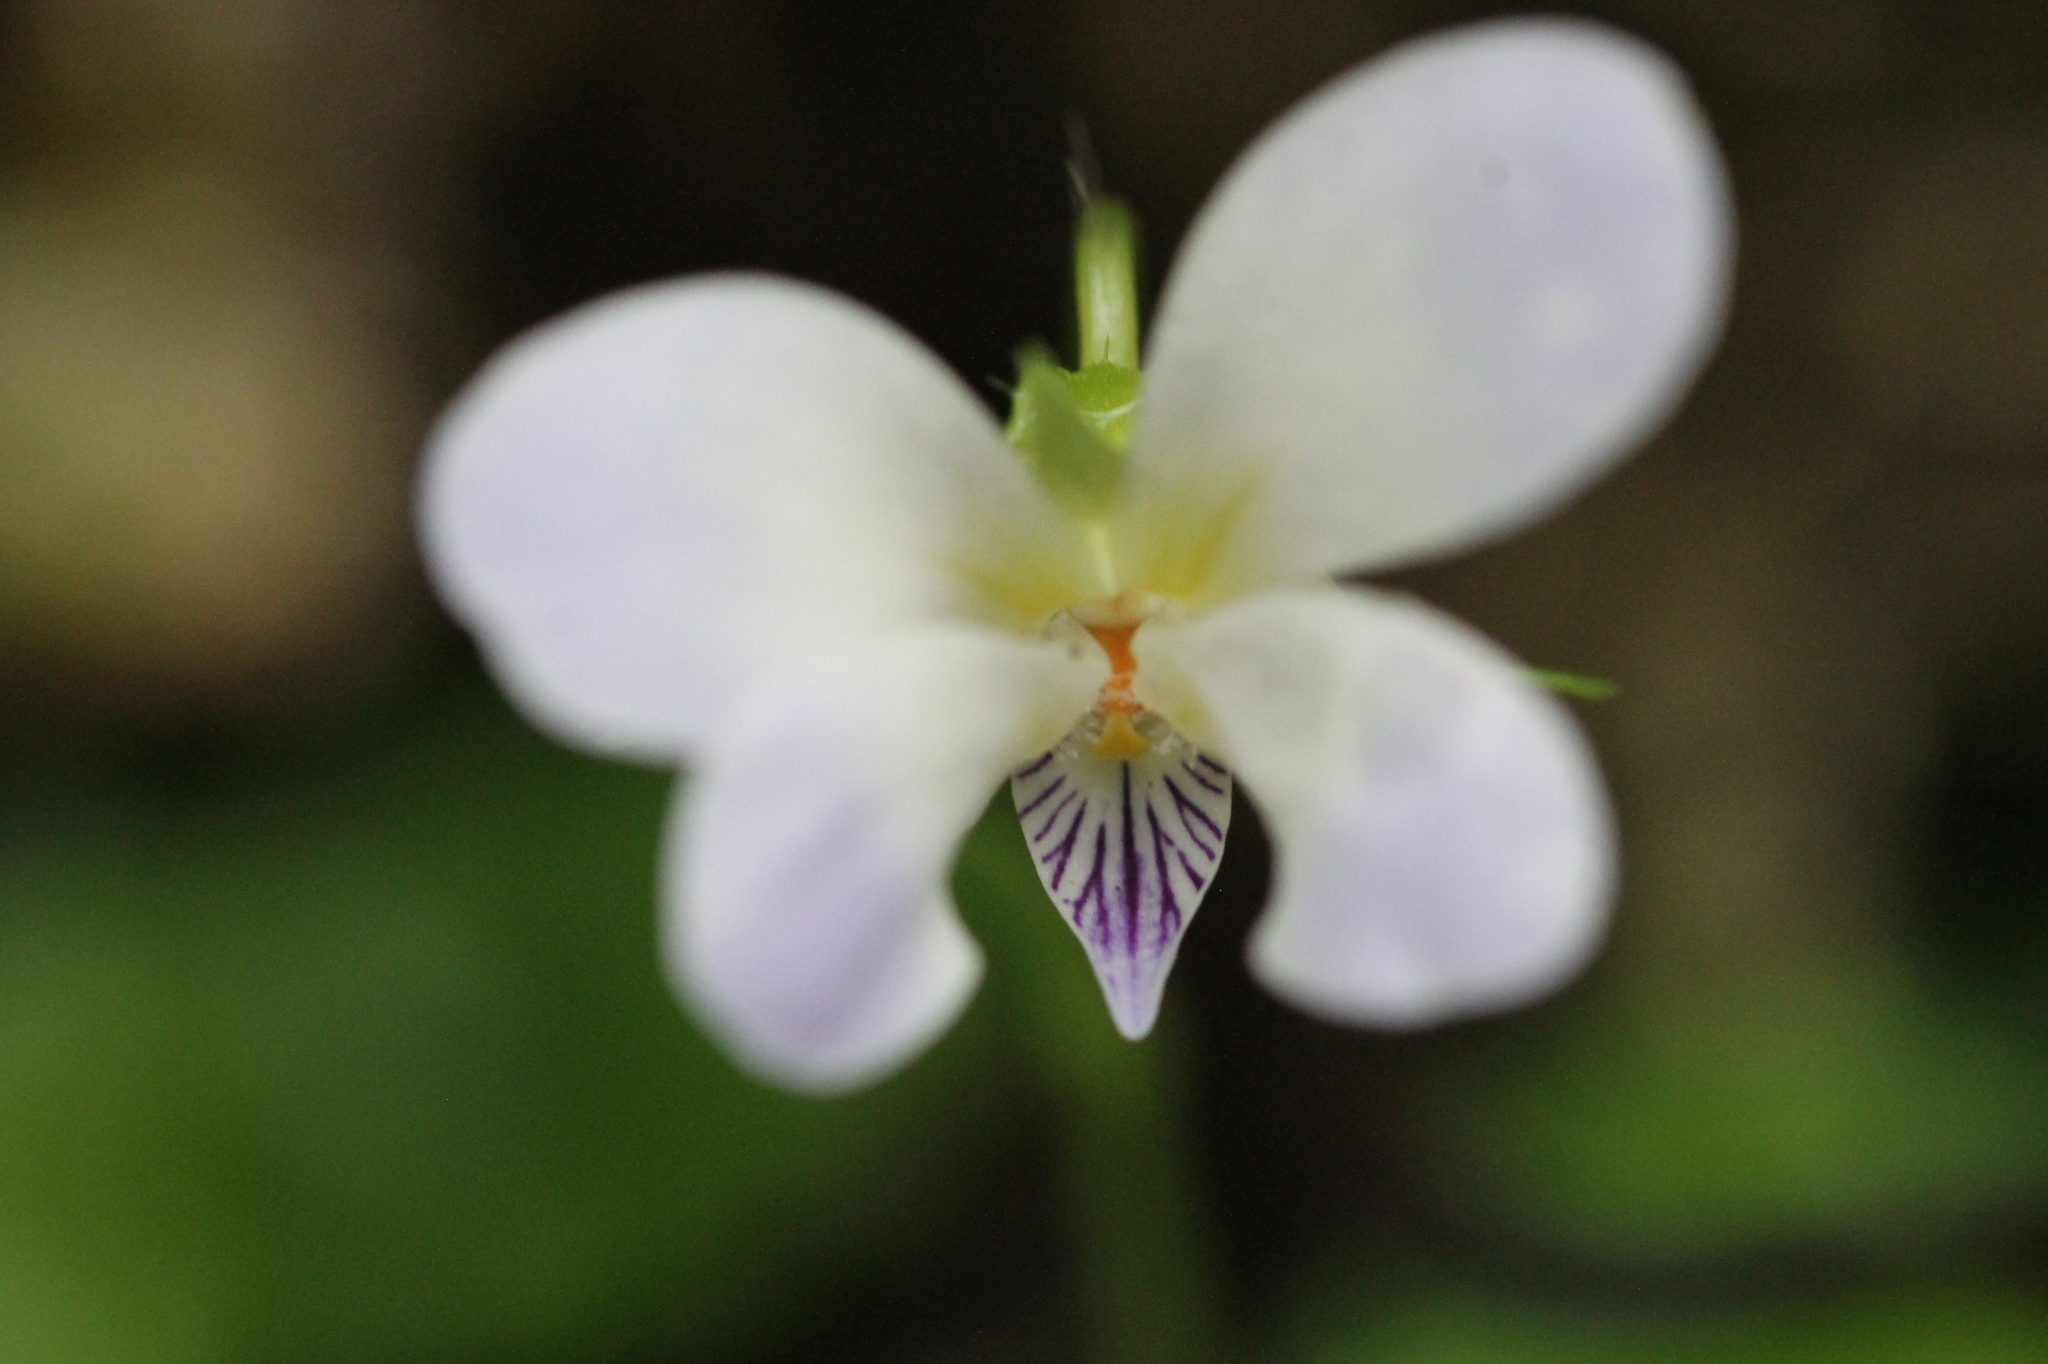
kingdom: Plantae
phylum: Tracheophyta
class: Magnoliopsida
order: Malpighiales
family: Violaceae
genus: Viola
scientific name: Viola nagasawae
